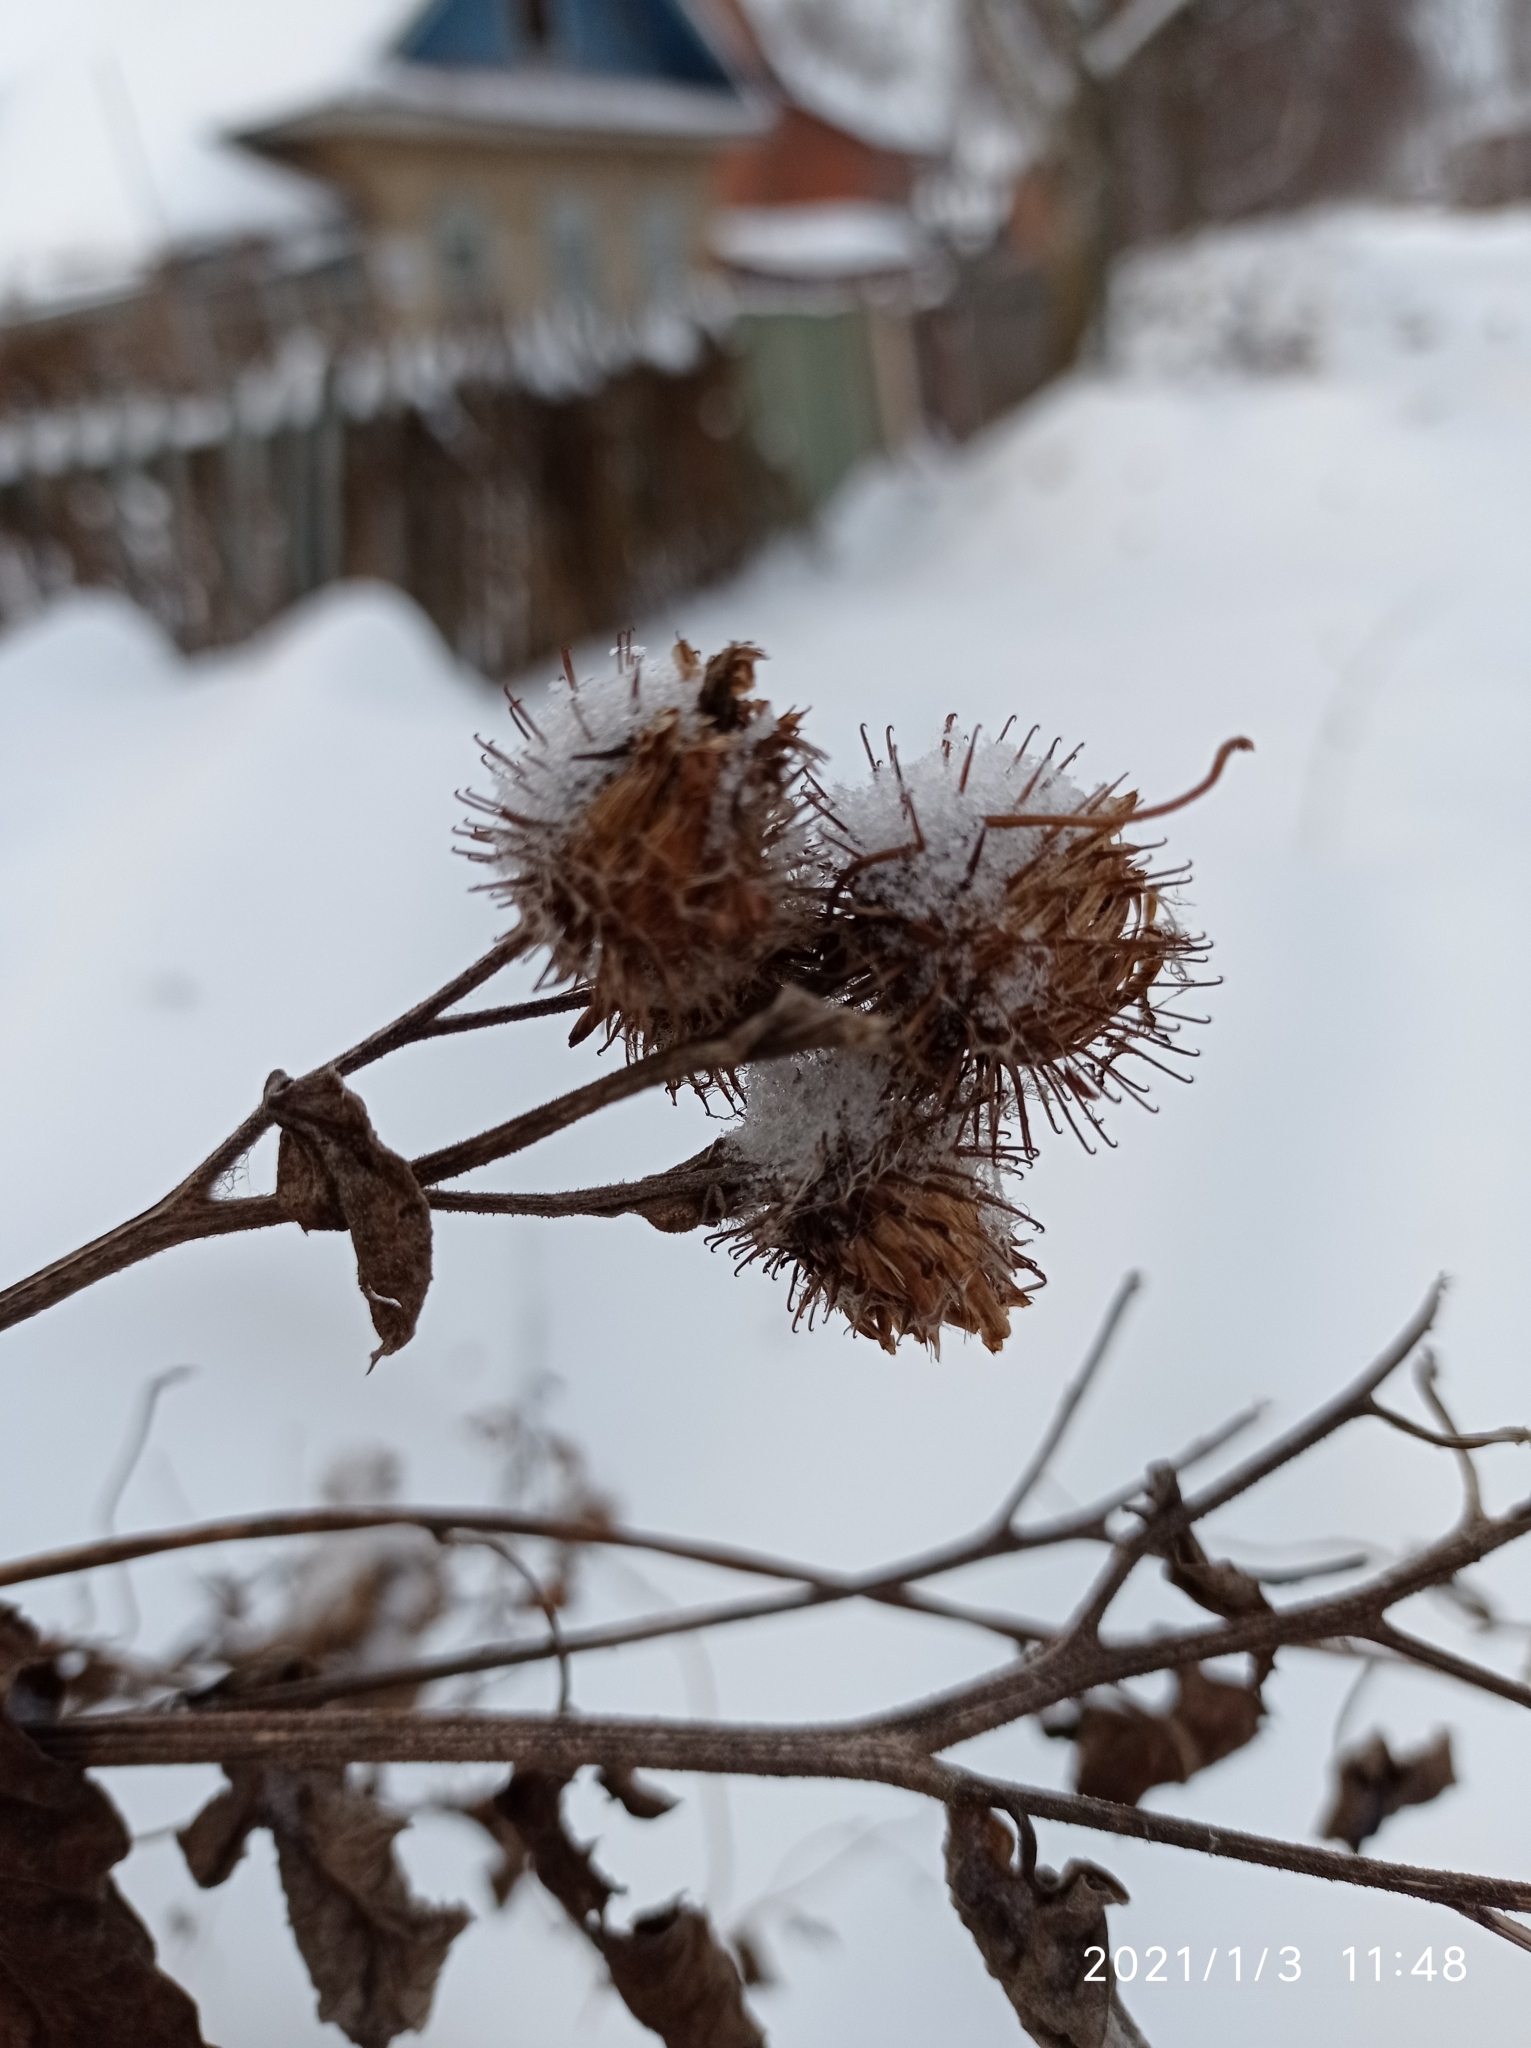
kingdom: Plantae
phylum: Tracheophyta
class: Magnoliopsida
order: Asterales
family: Asteraceae
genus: Arctium
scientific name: Arctium tomentosum
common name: Woolly burdock
